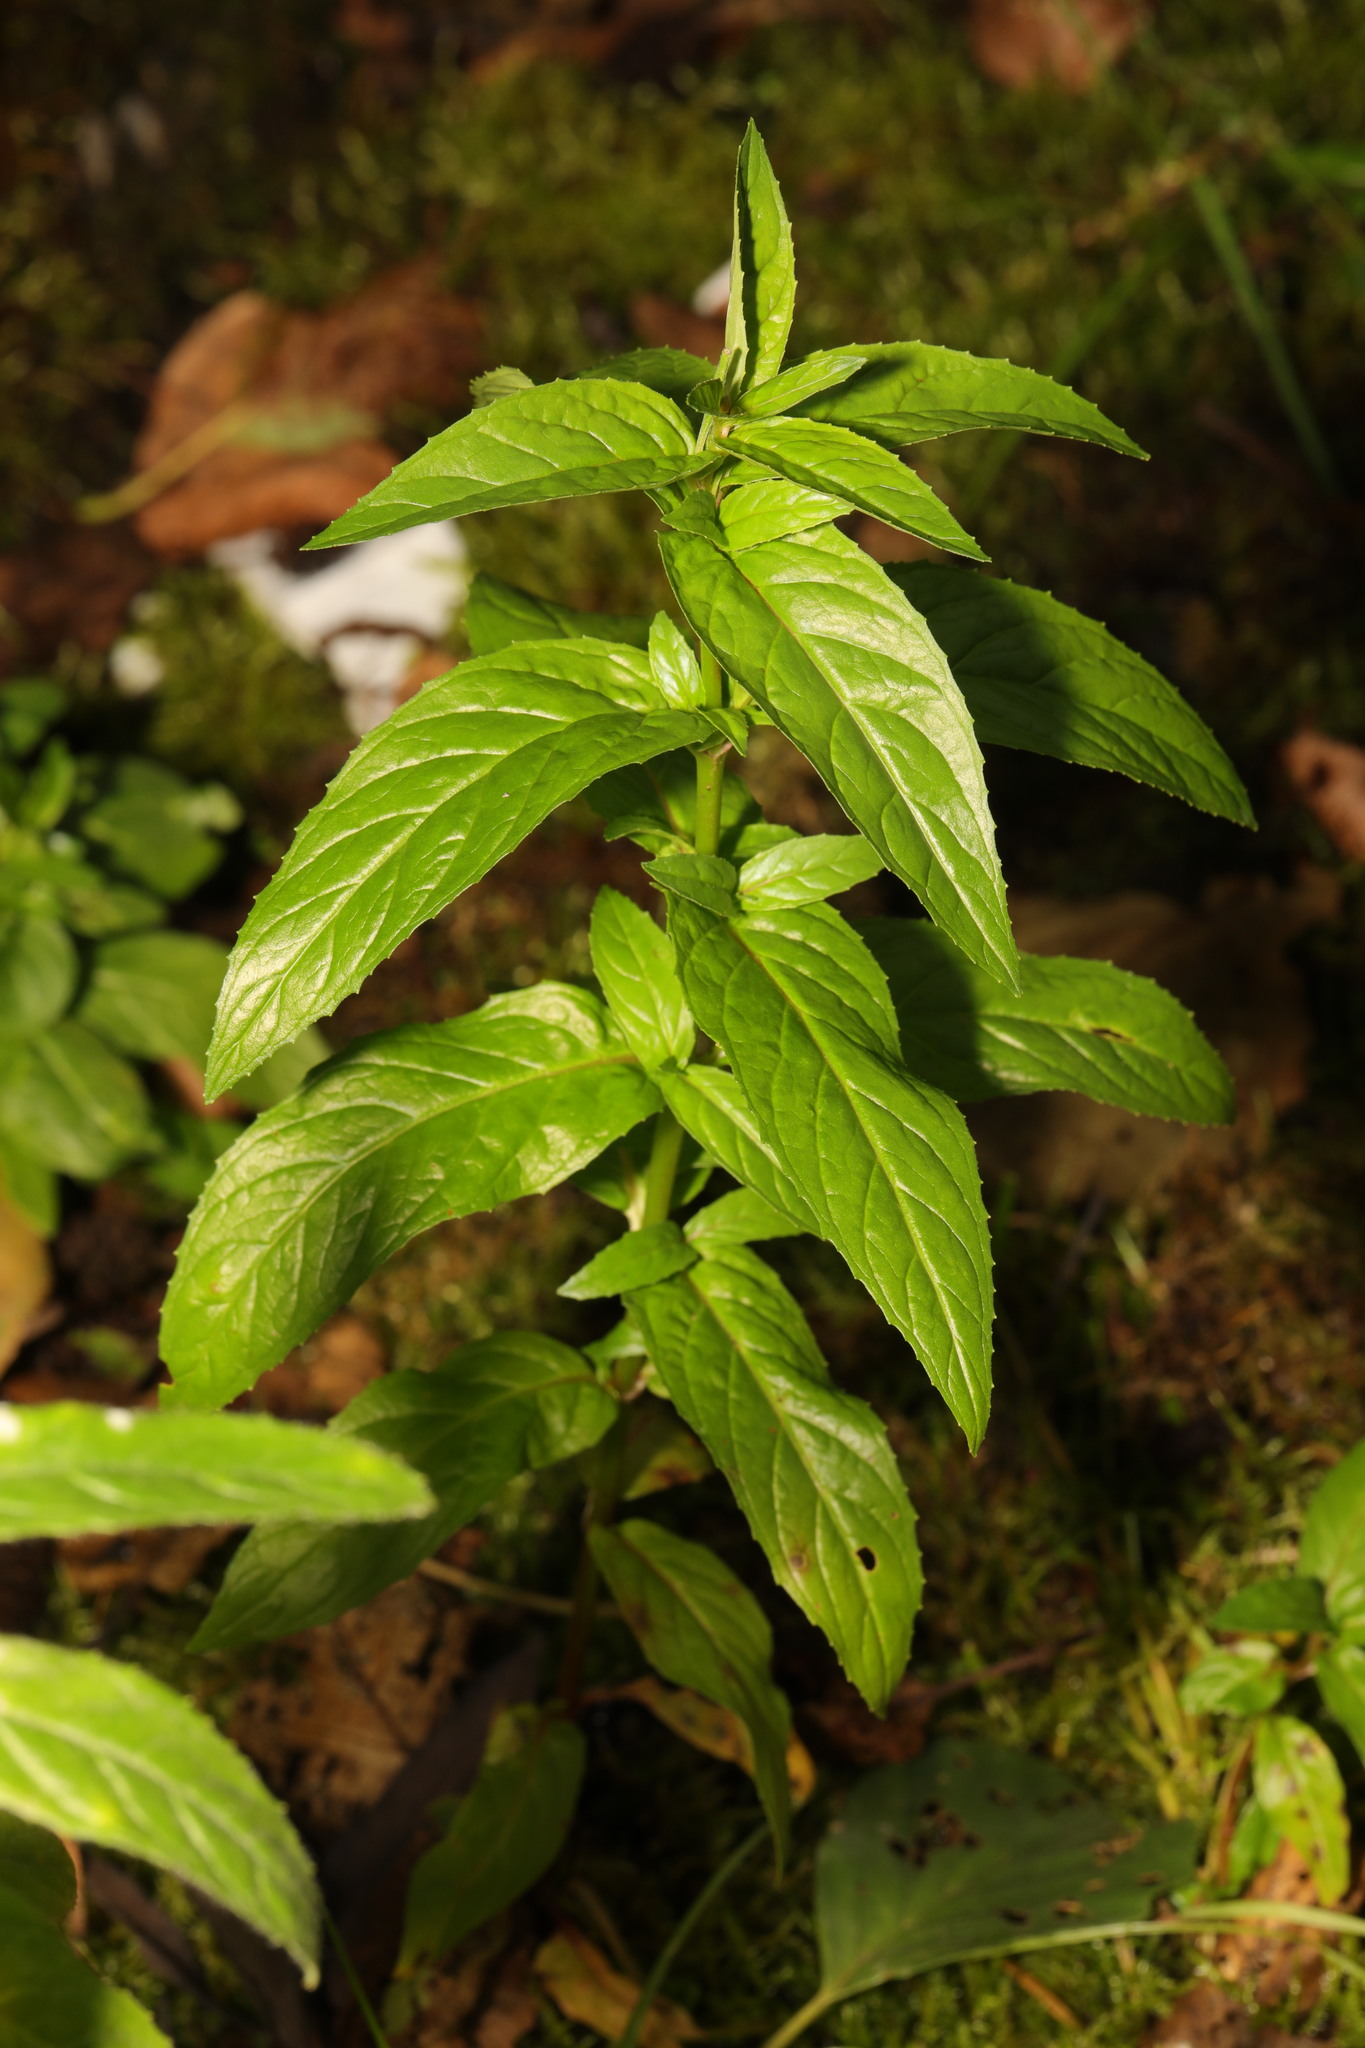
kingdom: Plantae
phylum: Tracheophyta
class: Magnoliopsida
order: Myrtales
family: Onagraceae
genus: Epilobium
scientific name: Epilobium montanum
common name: Broad-leaved willowherb
